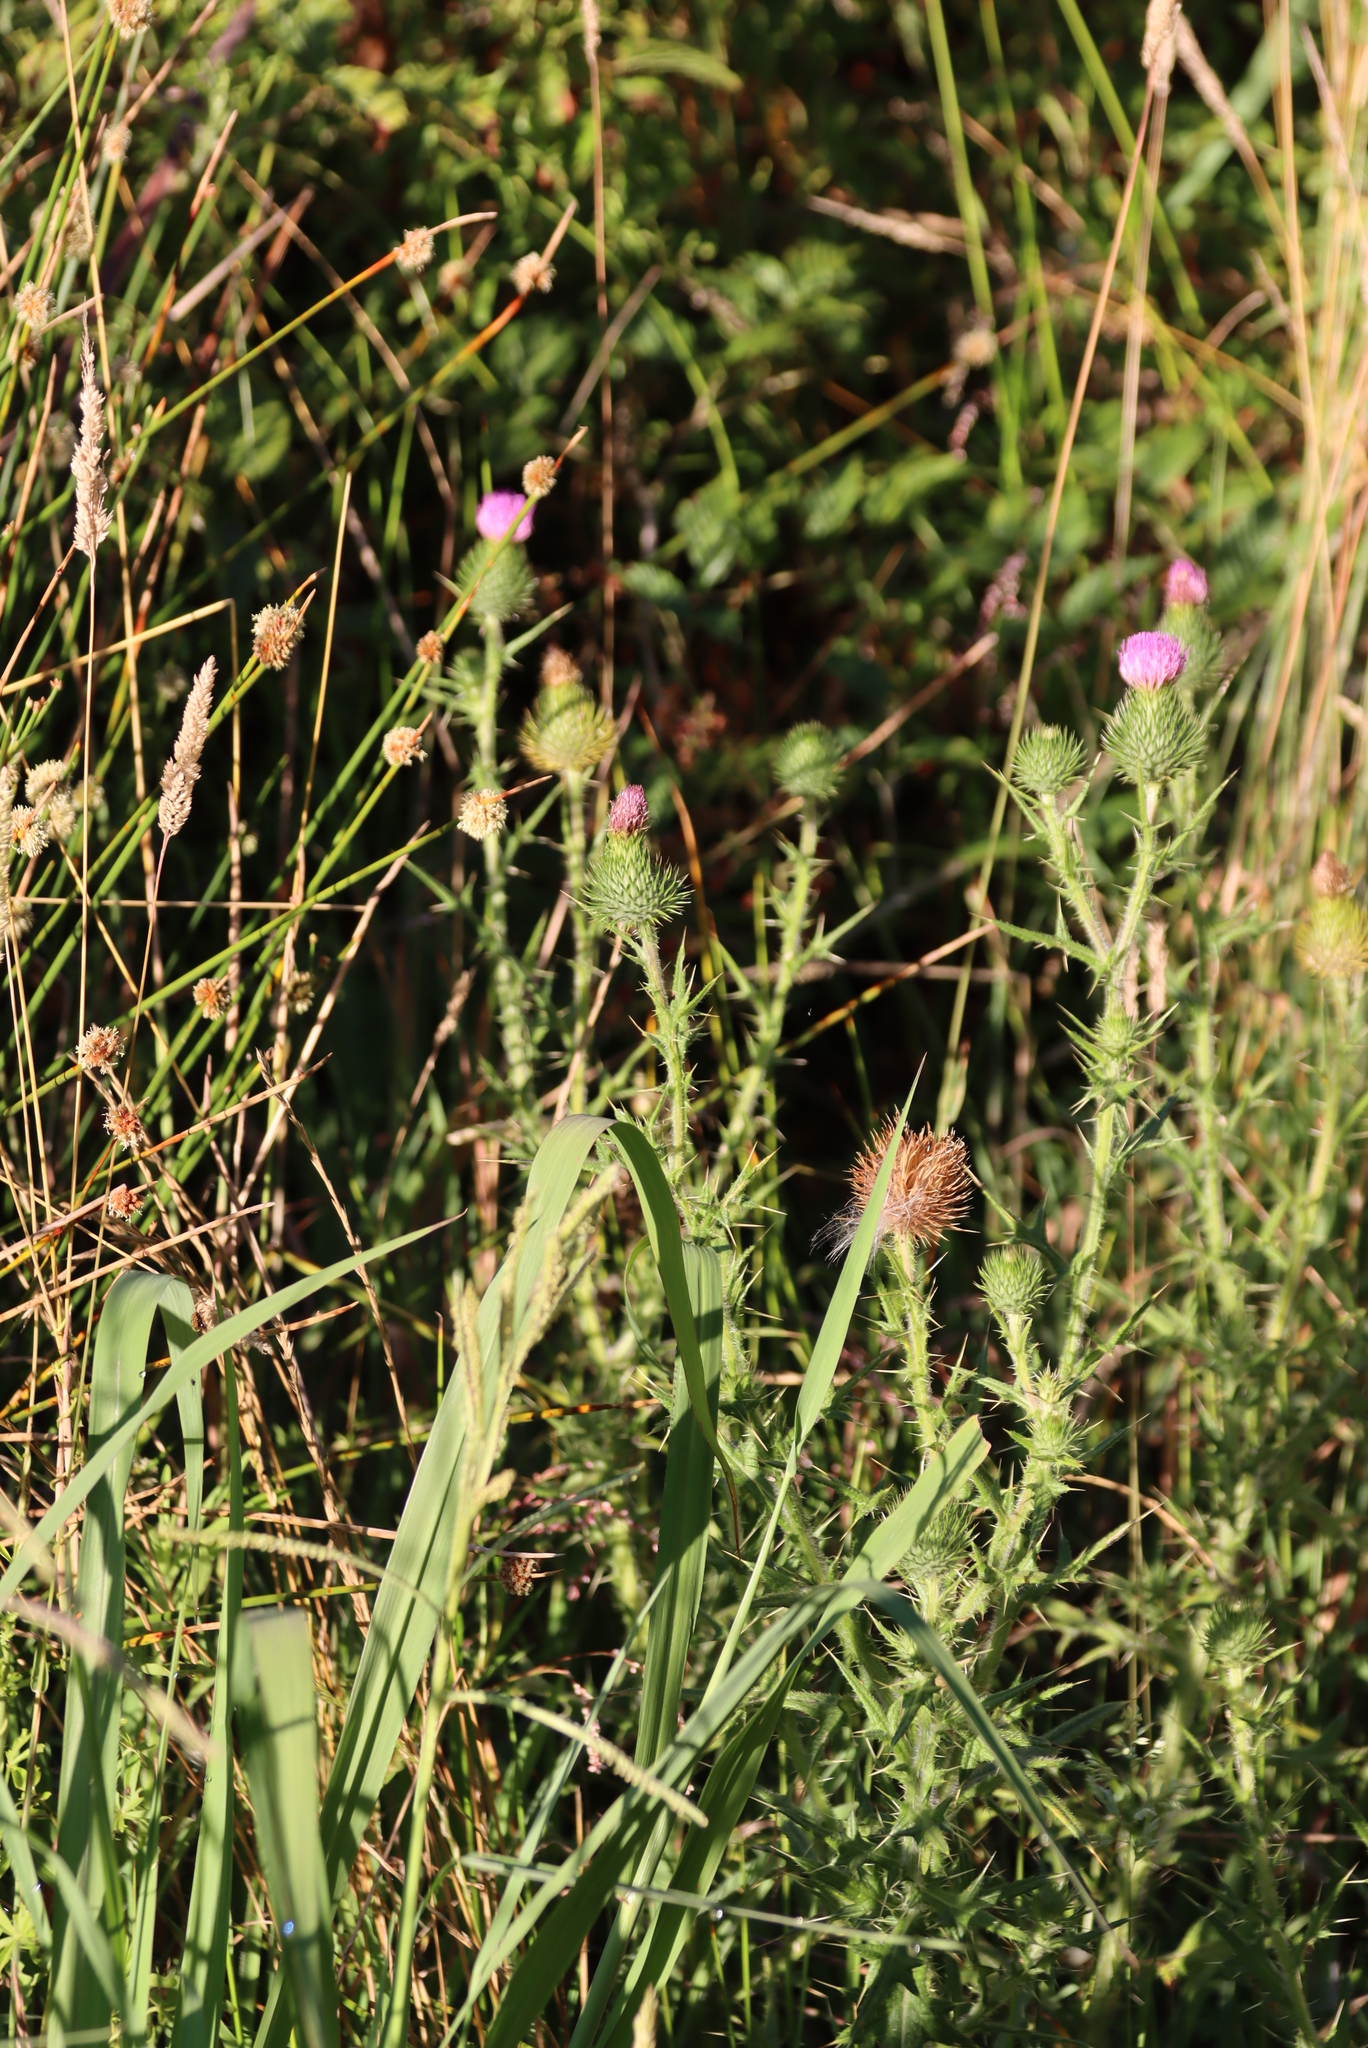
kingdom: Plantae
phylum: Tracheophyta
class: Magnoliopsida
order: Asterales
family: Asteraceae
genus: Cirsium
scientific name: Cirsium vulgare
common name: Bull thistle
